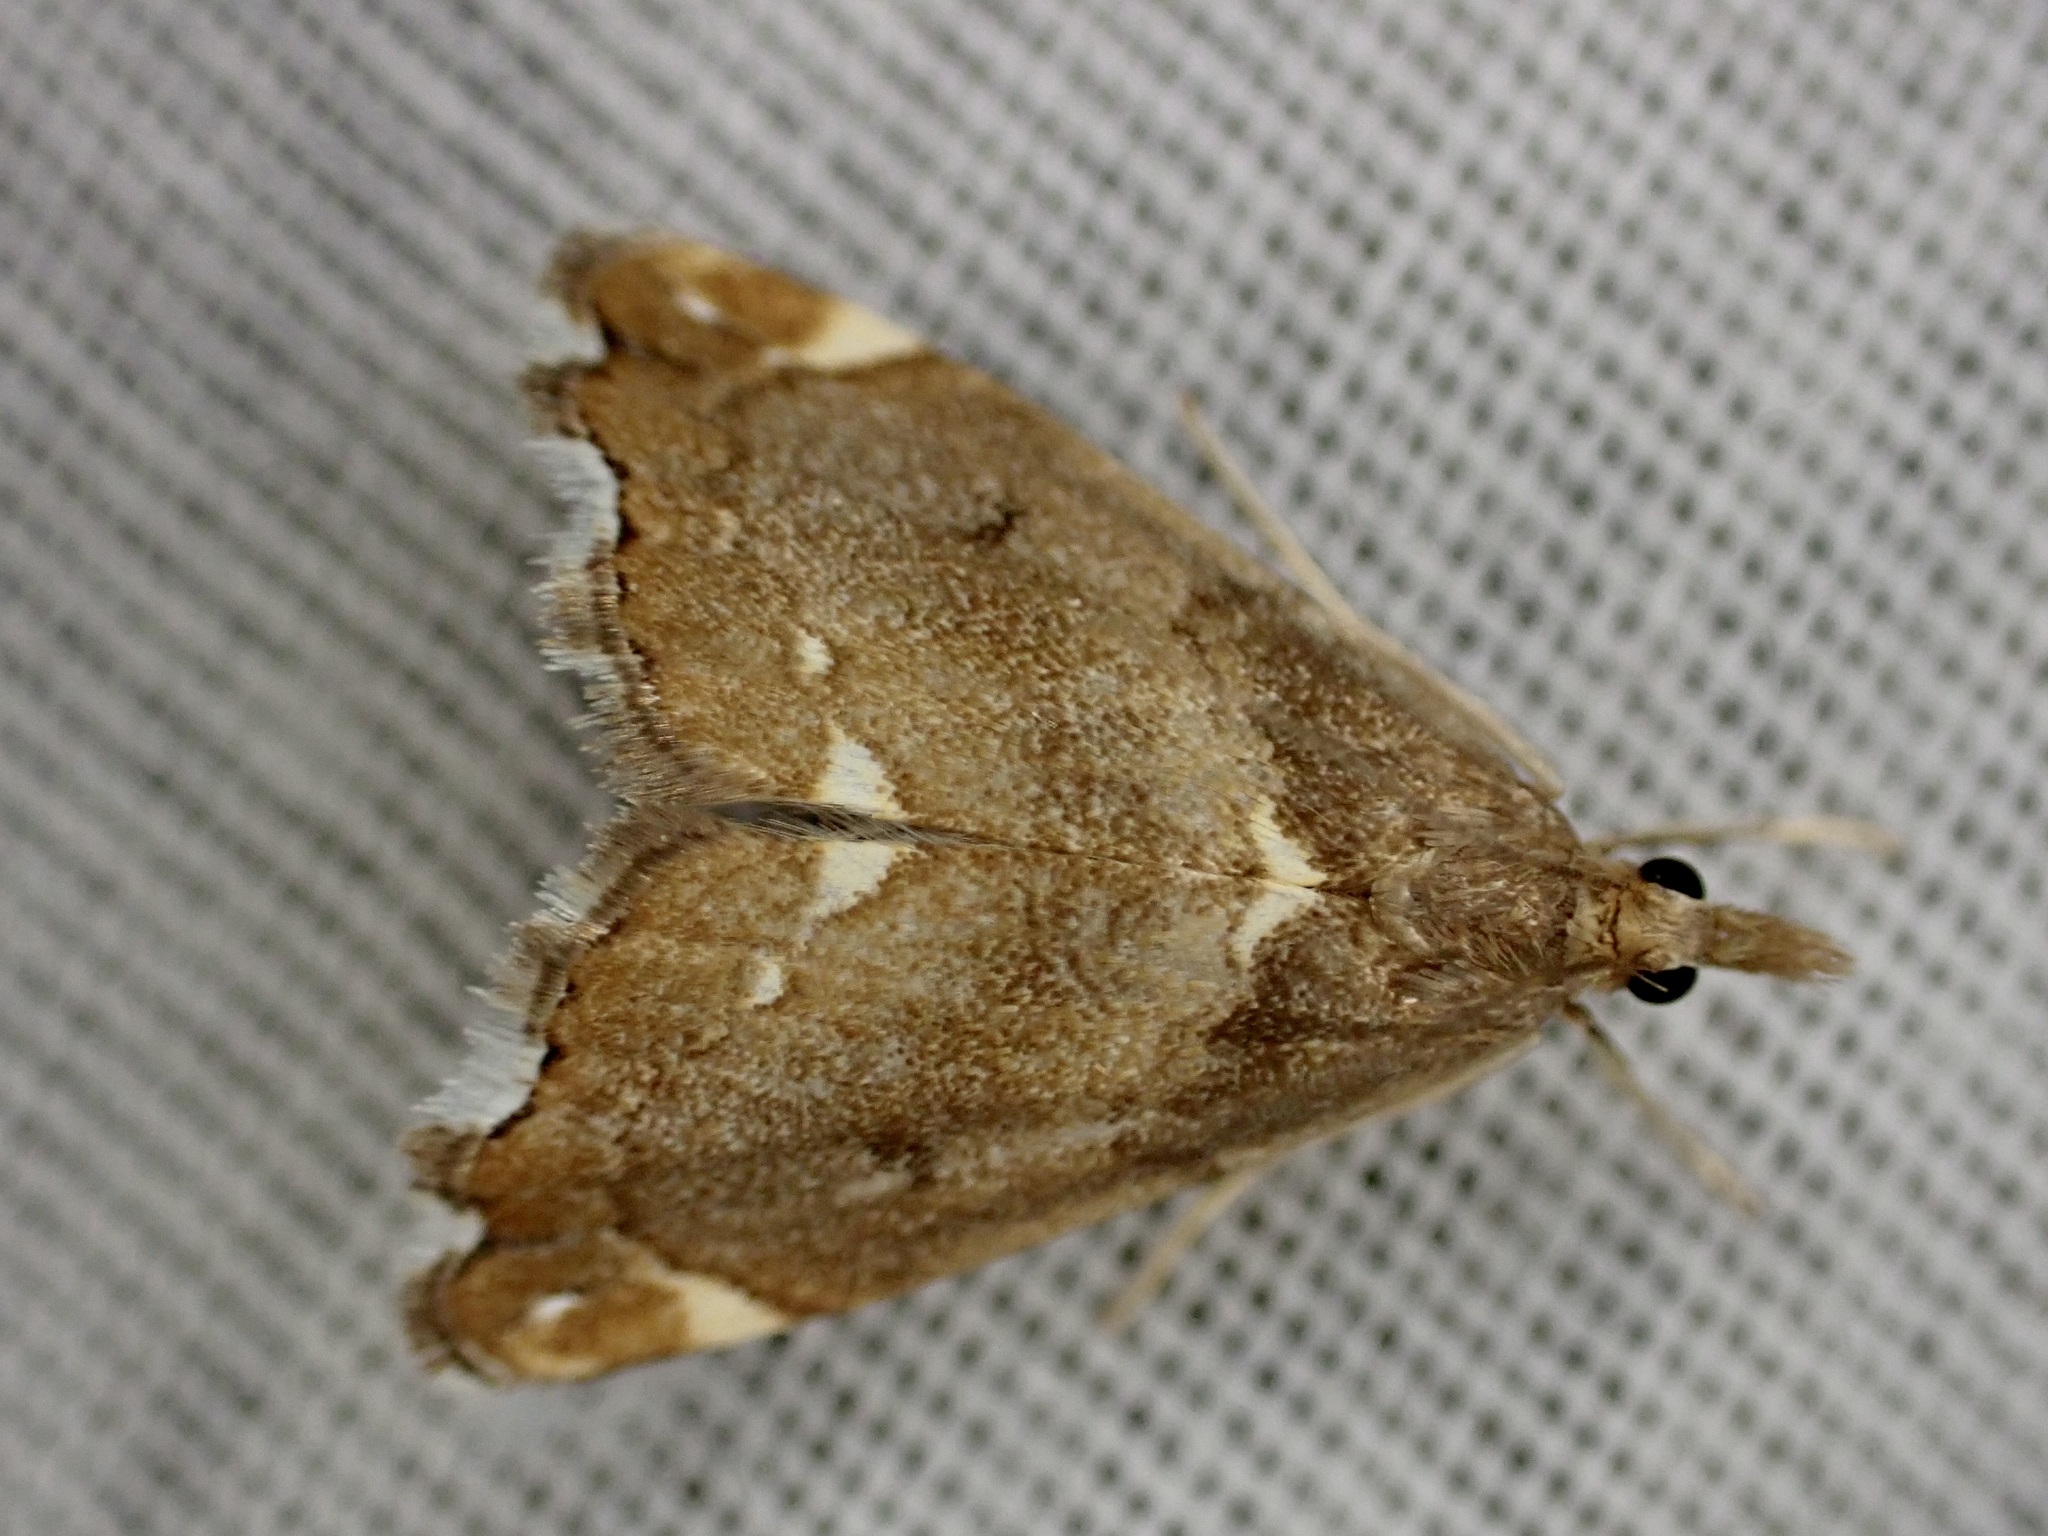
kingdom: Animalia
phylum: Arthropoda
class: Insecta
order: Lepidoptera
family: Crambidae
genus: Glaucocharis
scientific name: Glaucocharis pyrsophanes
